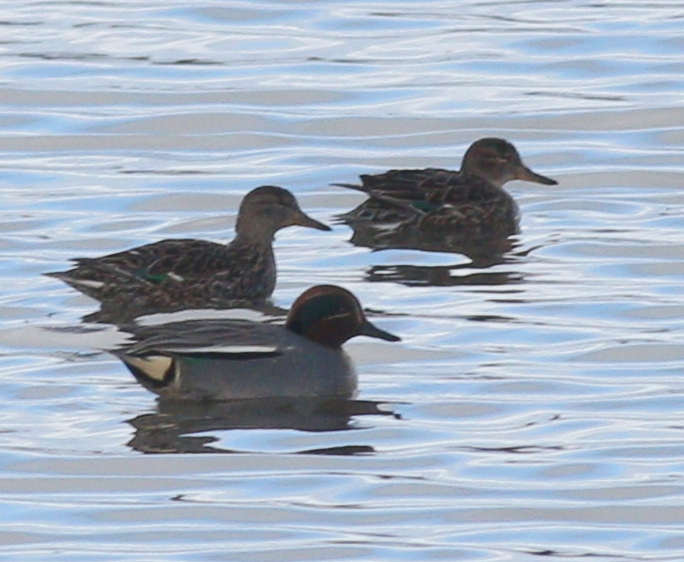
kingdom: Animalia
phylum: Chordata
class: Aves
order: Anseriformes
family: Anatidae
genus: Anas
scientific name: Anas crecca
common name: Eurasian teal
